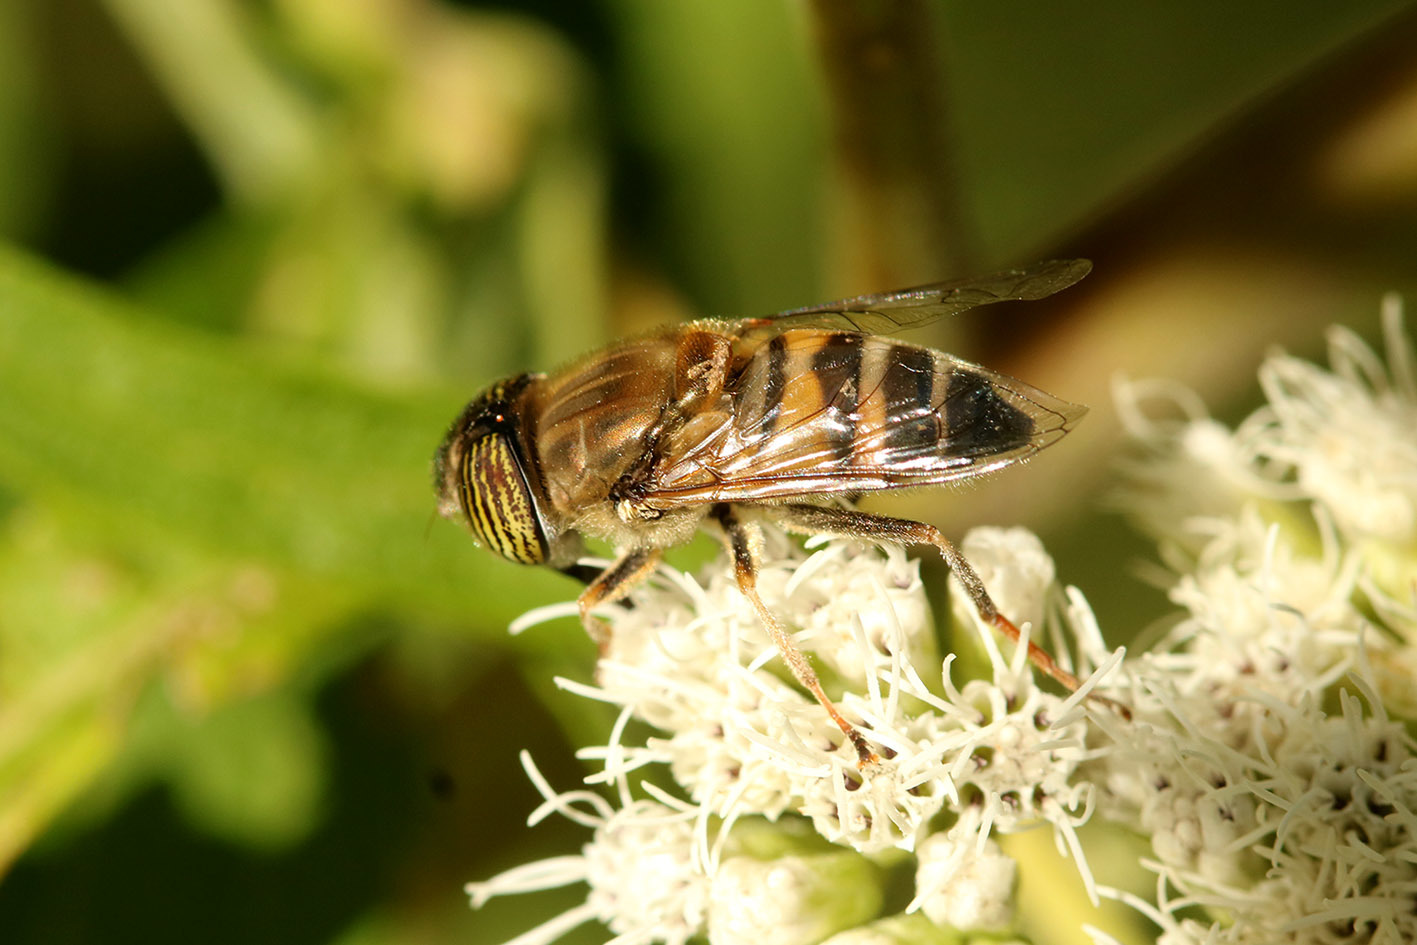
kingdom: Animalia
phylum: Arthropoda
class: Insecta
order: Diptera
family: Syrphidae
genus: Eristalinus
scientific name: Eristalinus taeniops
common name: Syrphid fly
